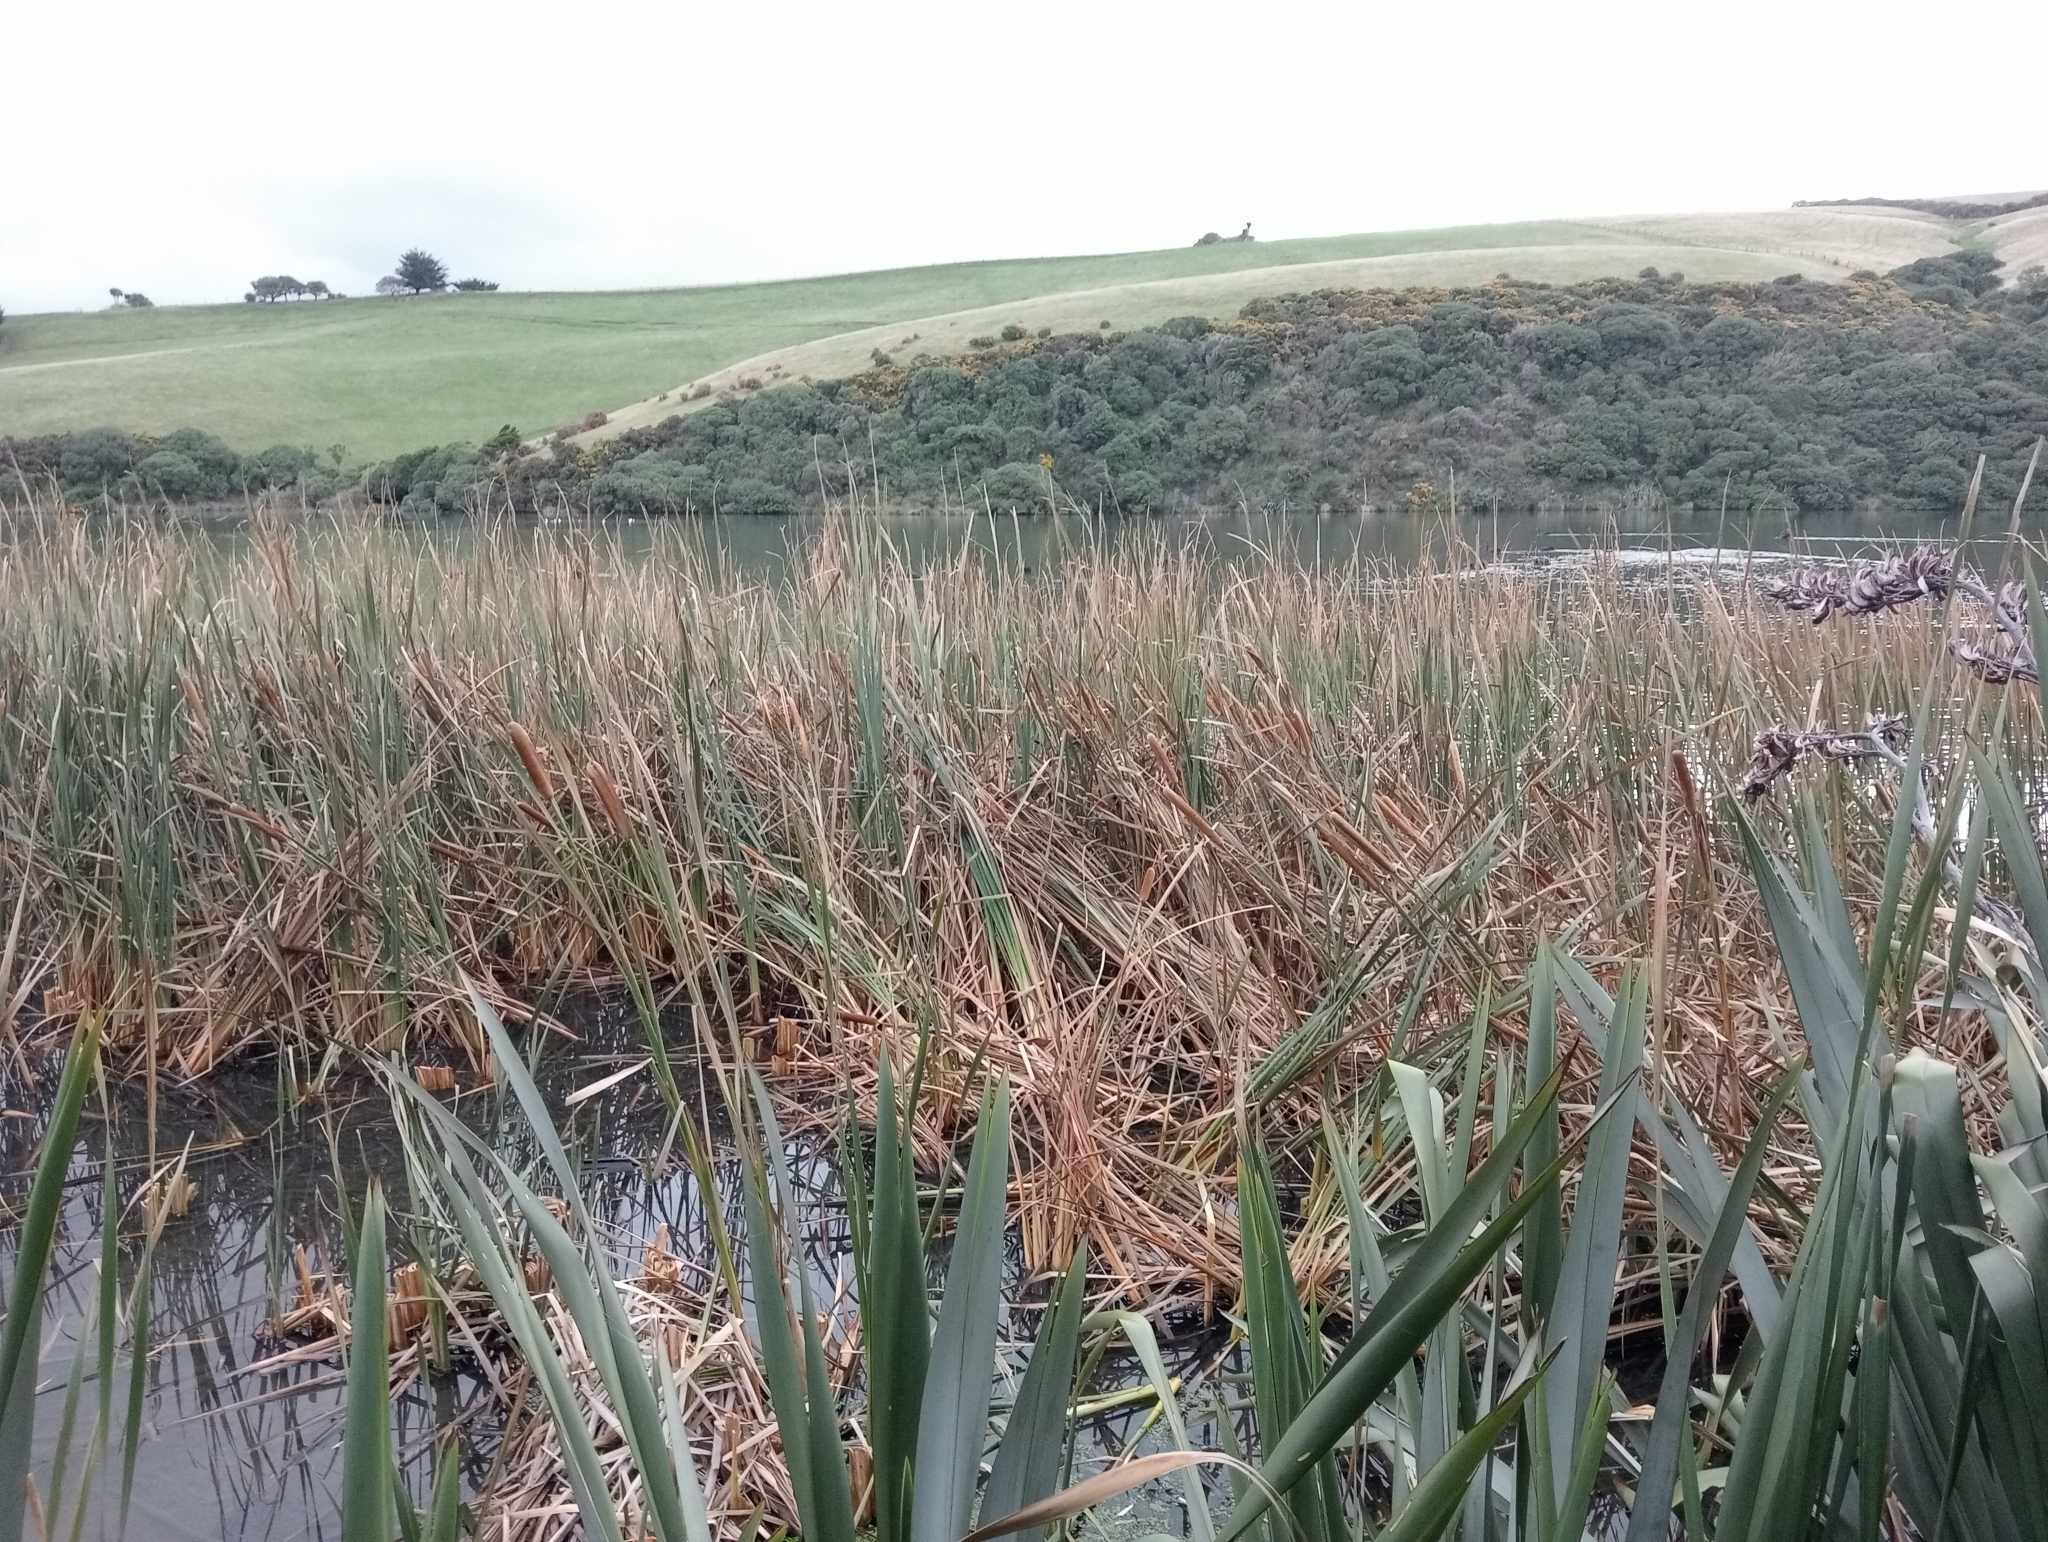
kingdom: Plantae
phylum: Tracheophyta
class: Liliopsida
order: Poales
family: Typhaceae
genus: Typha
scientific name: Typha orientalis
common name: Bullrush
